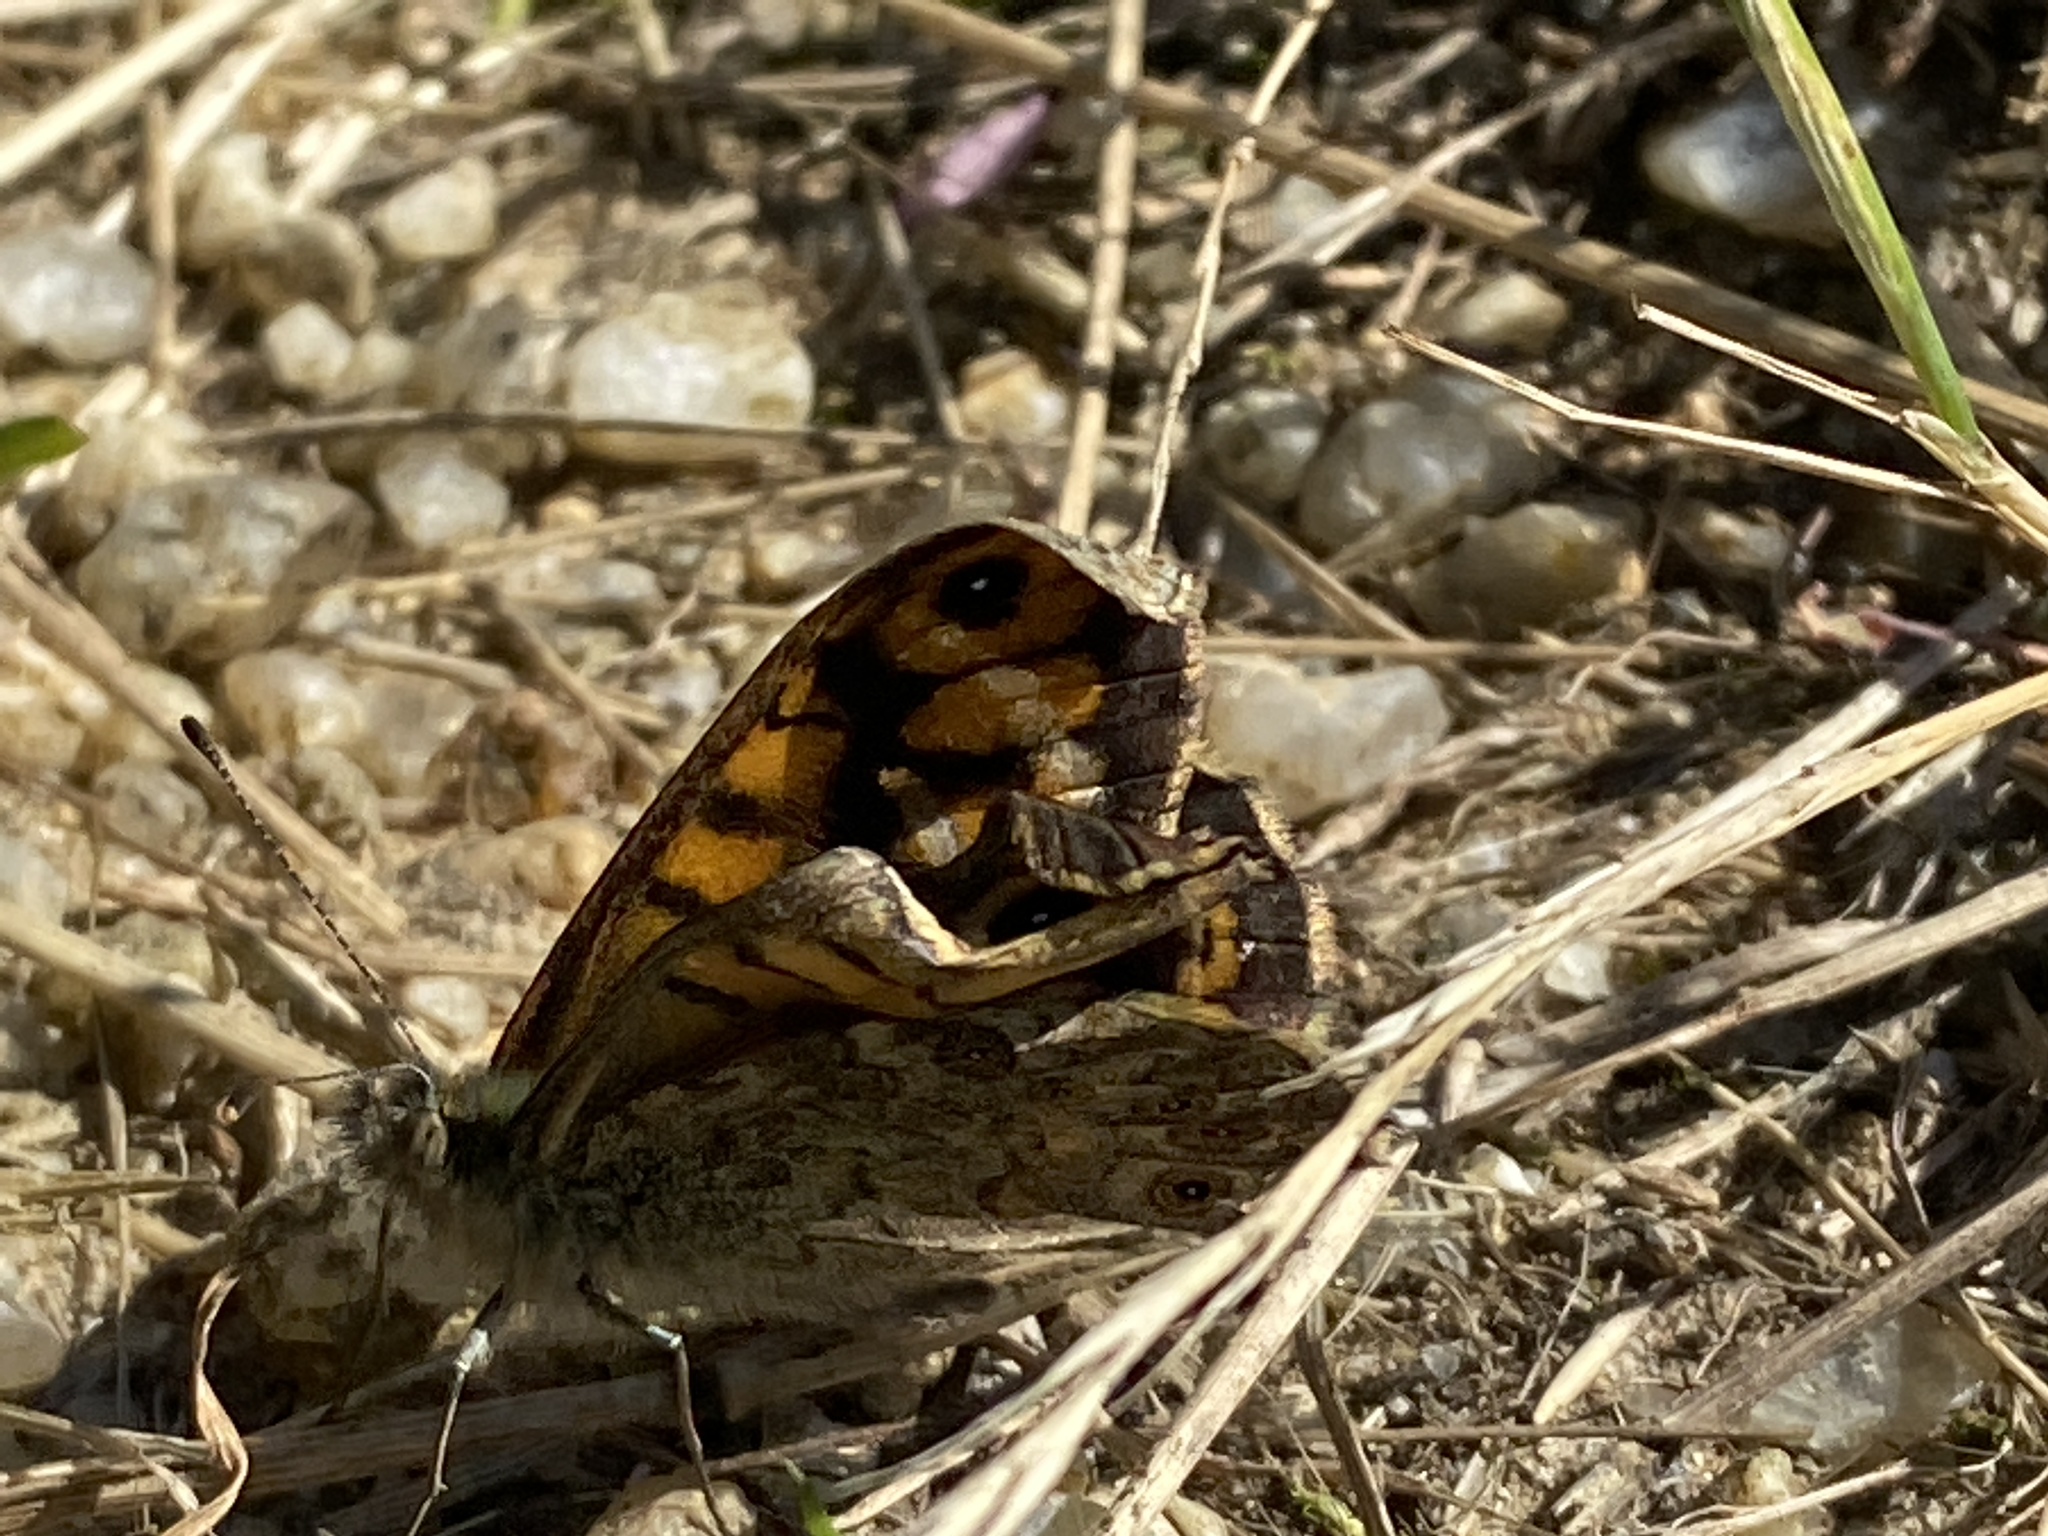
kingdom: Animalia
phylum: Arthropoda
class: Insecta
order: Lepidoptera
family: Nymphalidae
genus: Pararge
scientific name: Pararge Lasiommata megera
